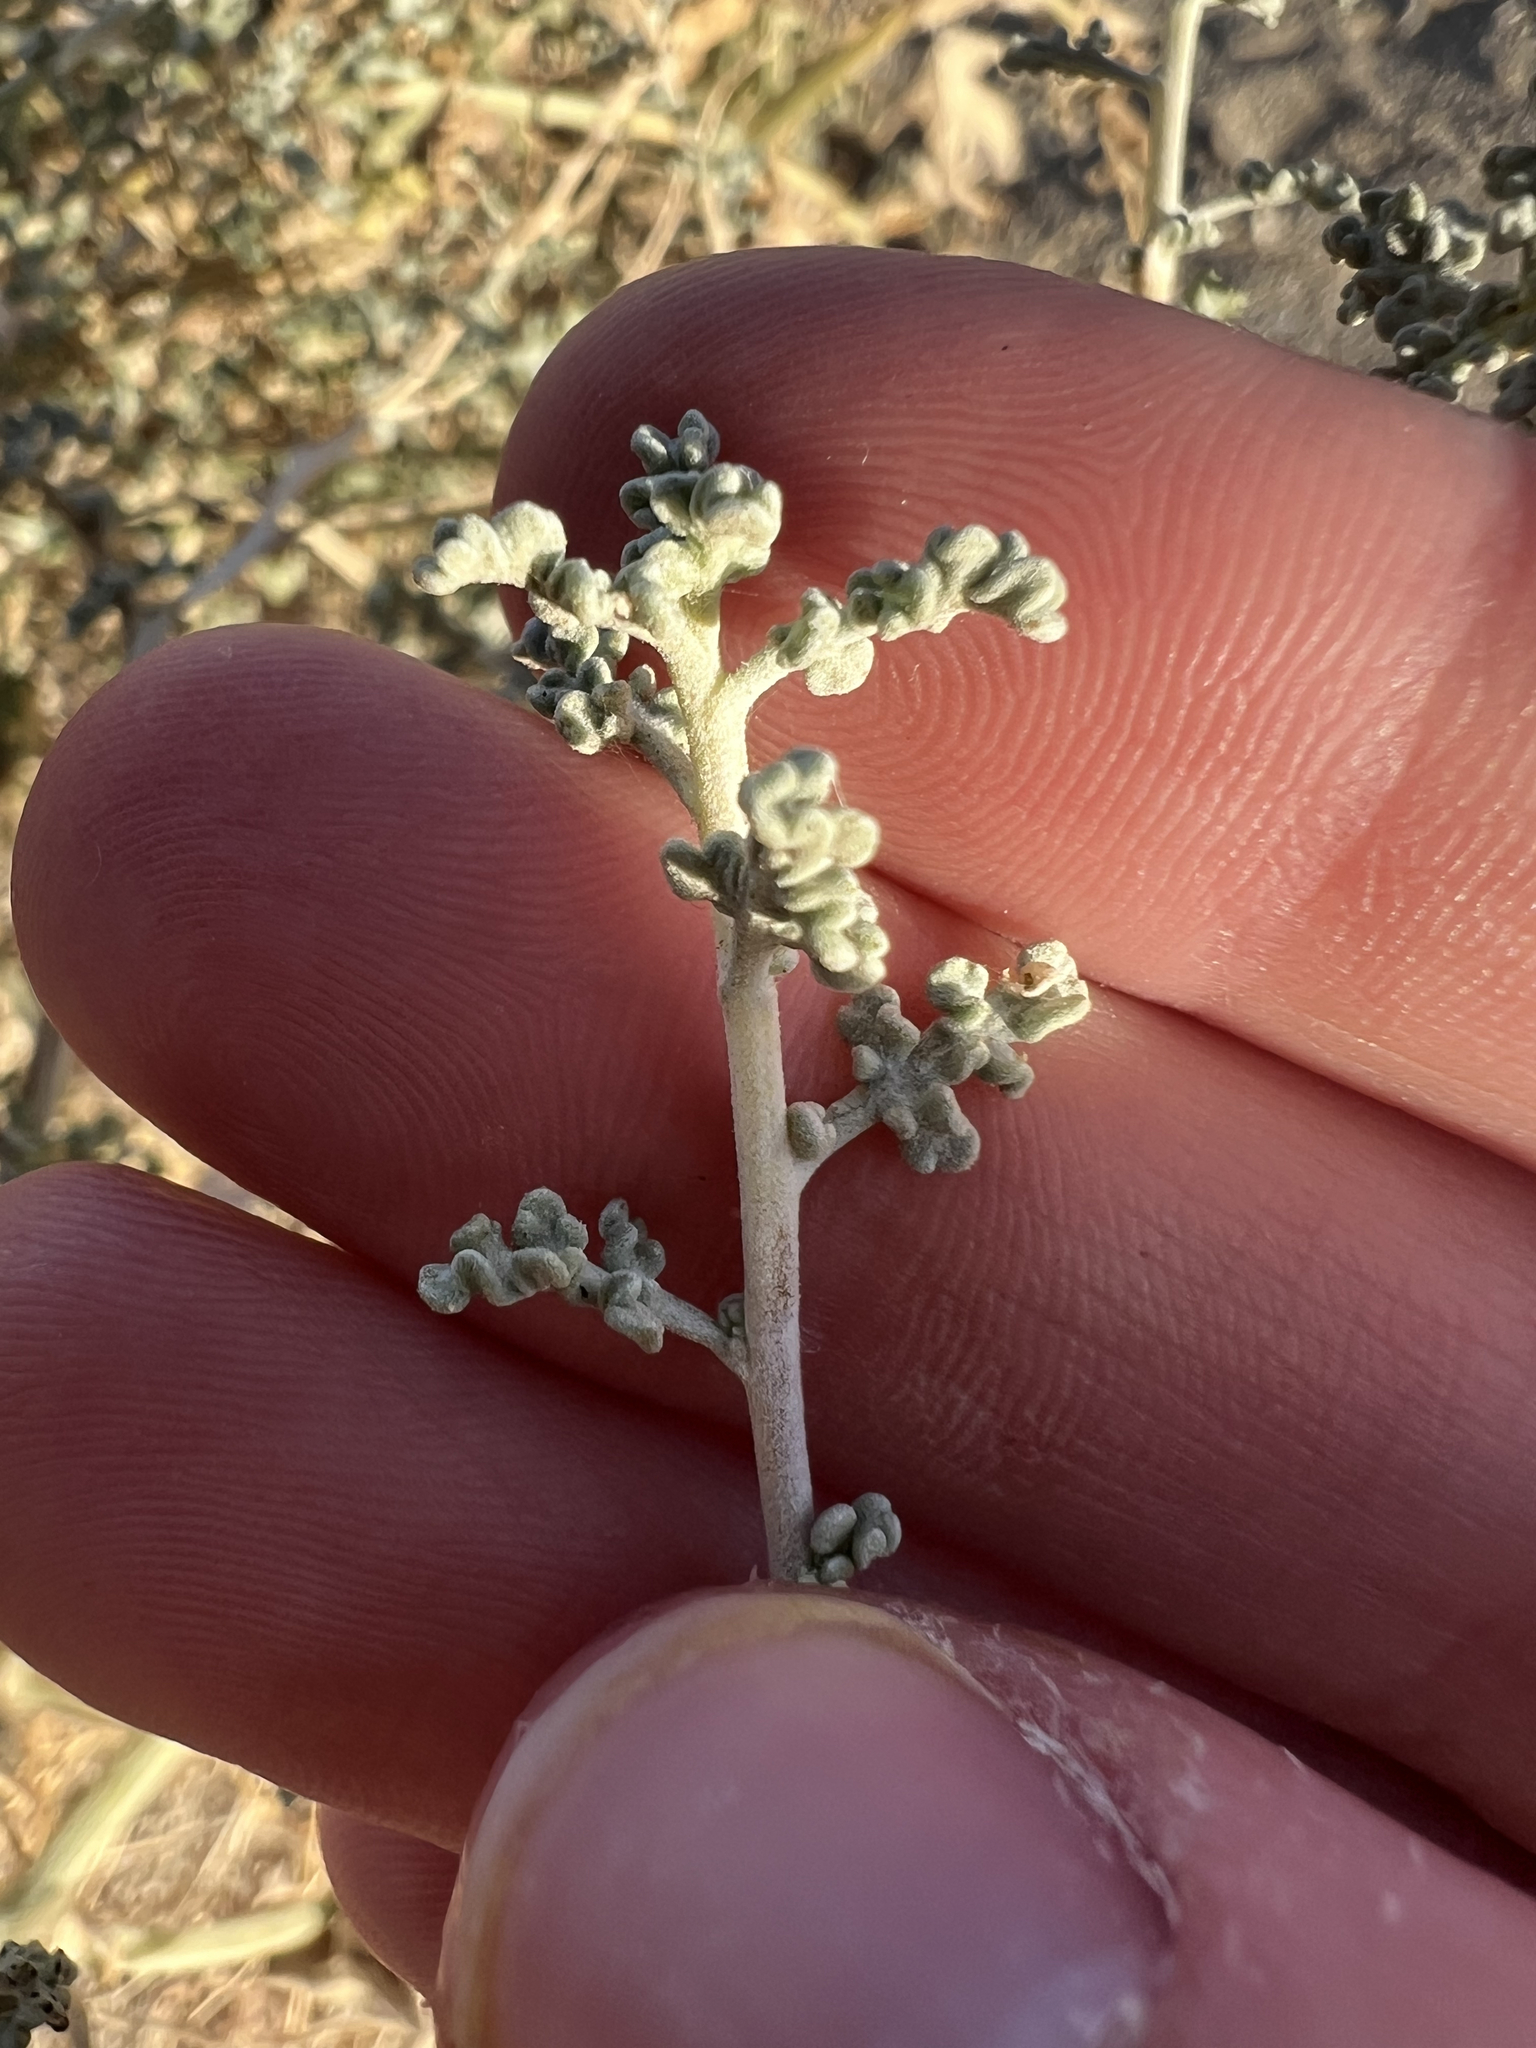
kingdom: Plantae
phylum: Tracheophyta
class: Magnoliopsida
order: Asterales
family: Asteraceae
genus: Ambrosia
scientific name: Ambrosia dumosa
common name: Bur-sage
